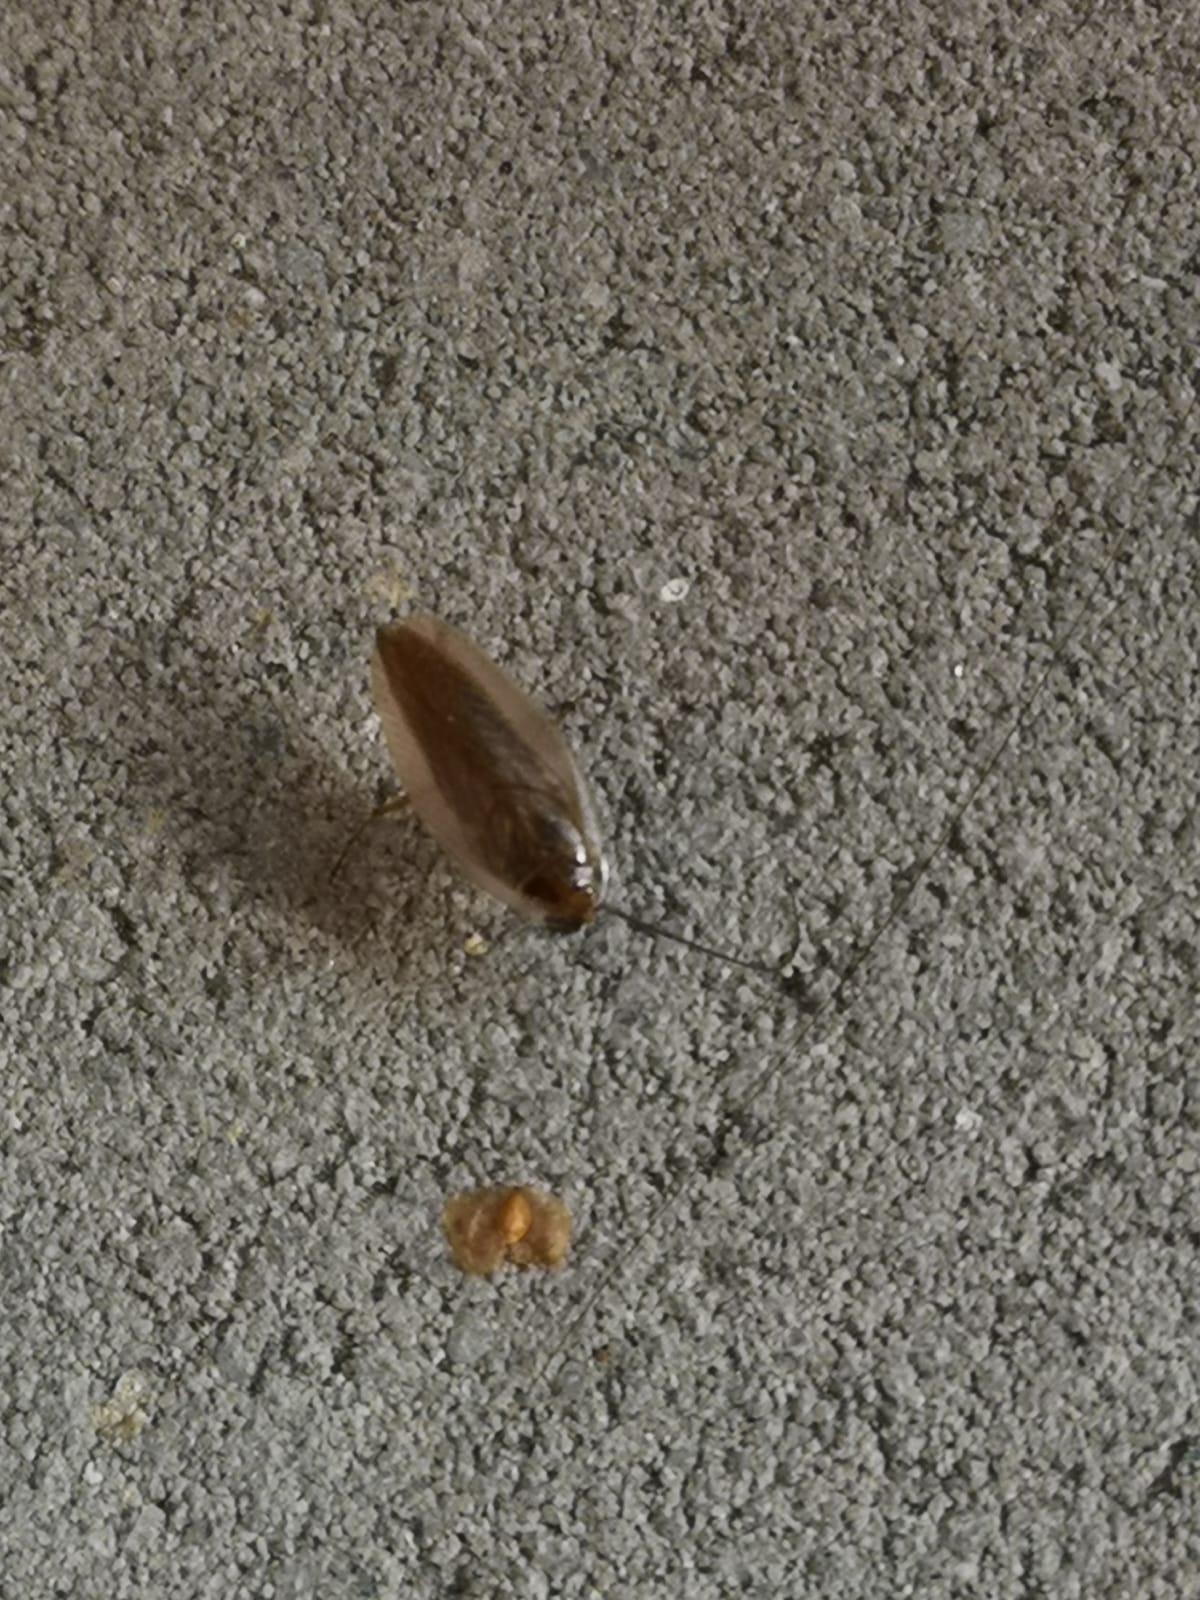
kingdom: Animalia
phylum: Arthropoda
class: Insecta
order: Blattodea
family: Ectobiidae
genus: Ectobius
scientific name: Ectobius vittiventris
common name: Garden cockroach
